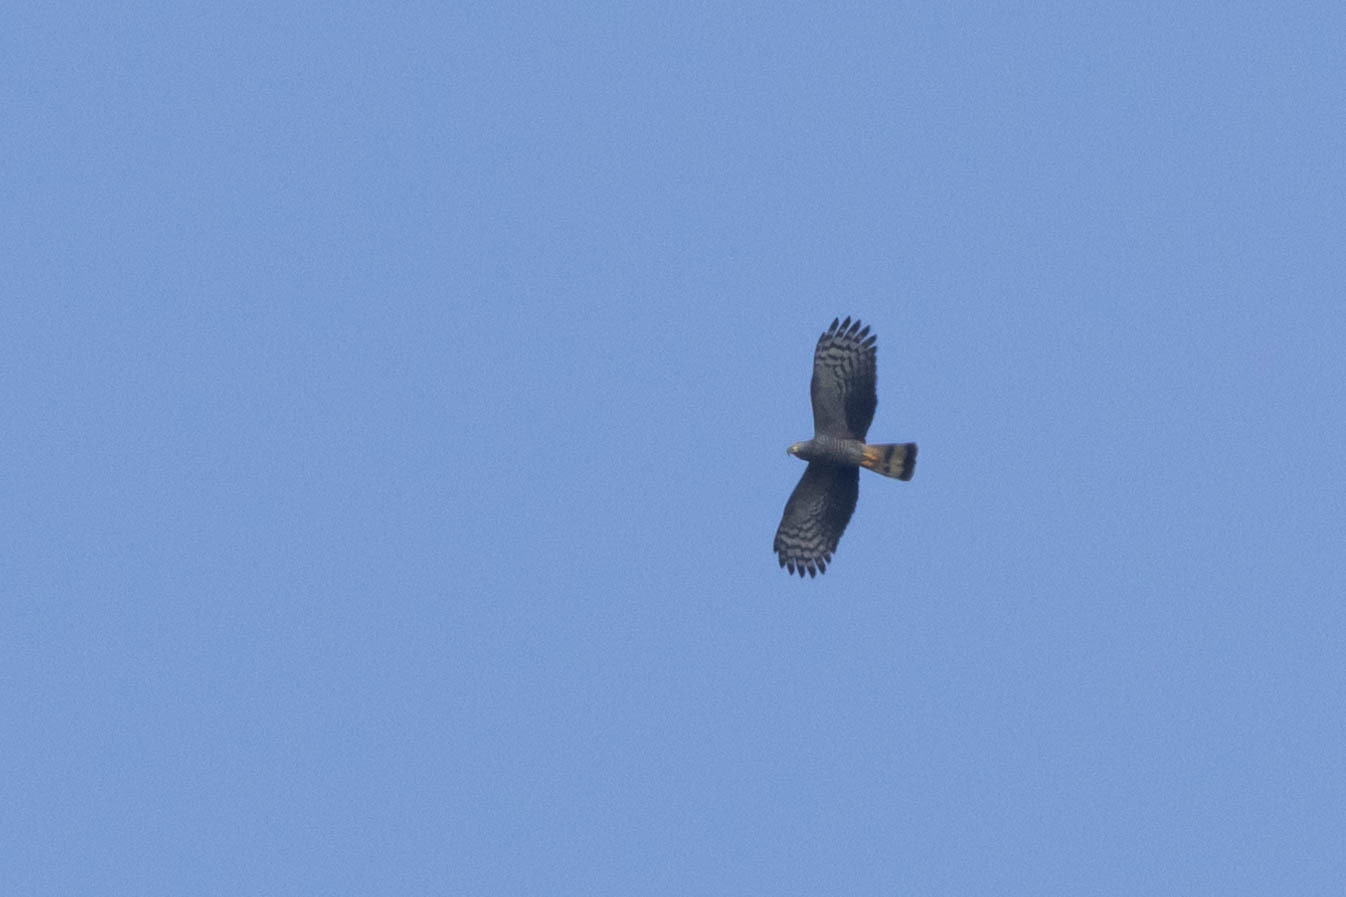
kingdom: Animalia
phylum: Chordata
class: Aves
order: Accipitriformes
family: Accipitridae
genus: Chondrohierax
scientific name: Chondrohierax uncinatus
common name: Hook-billed kite
